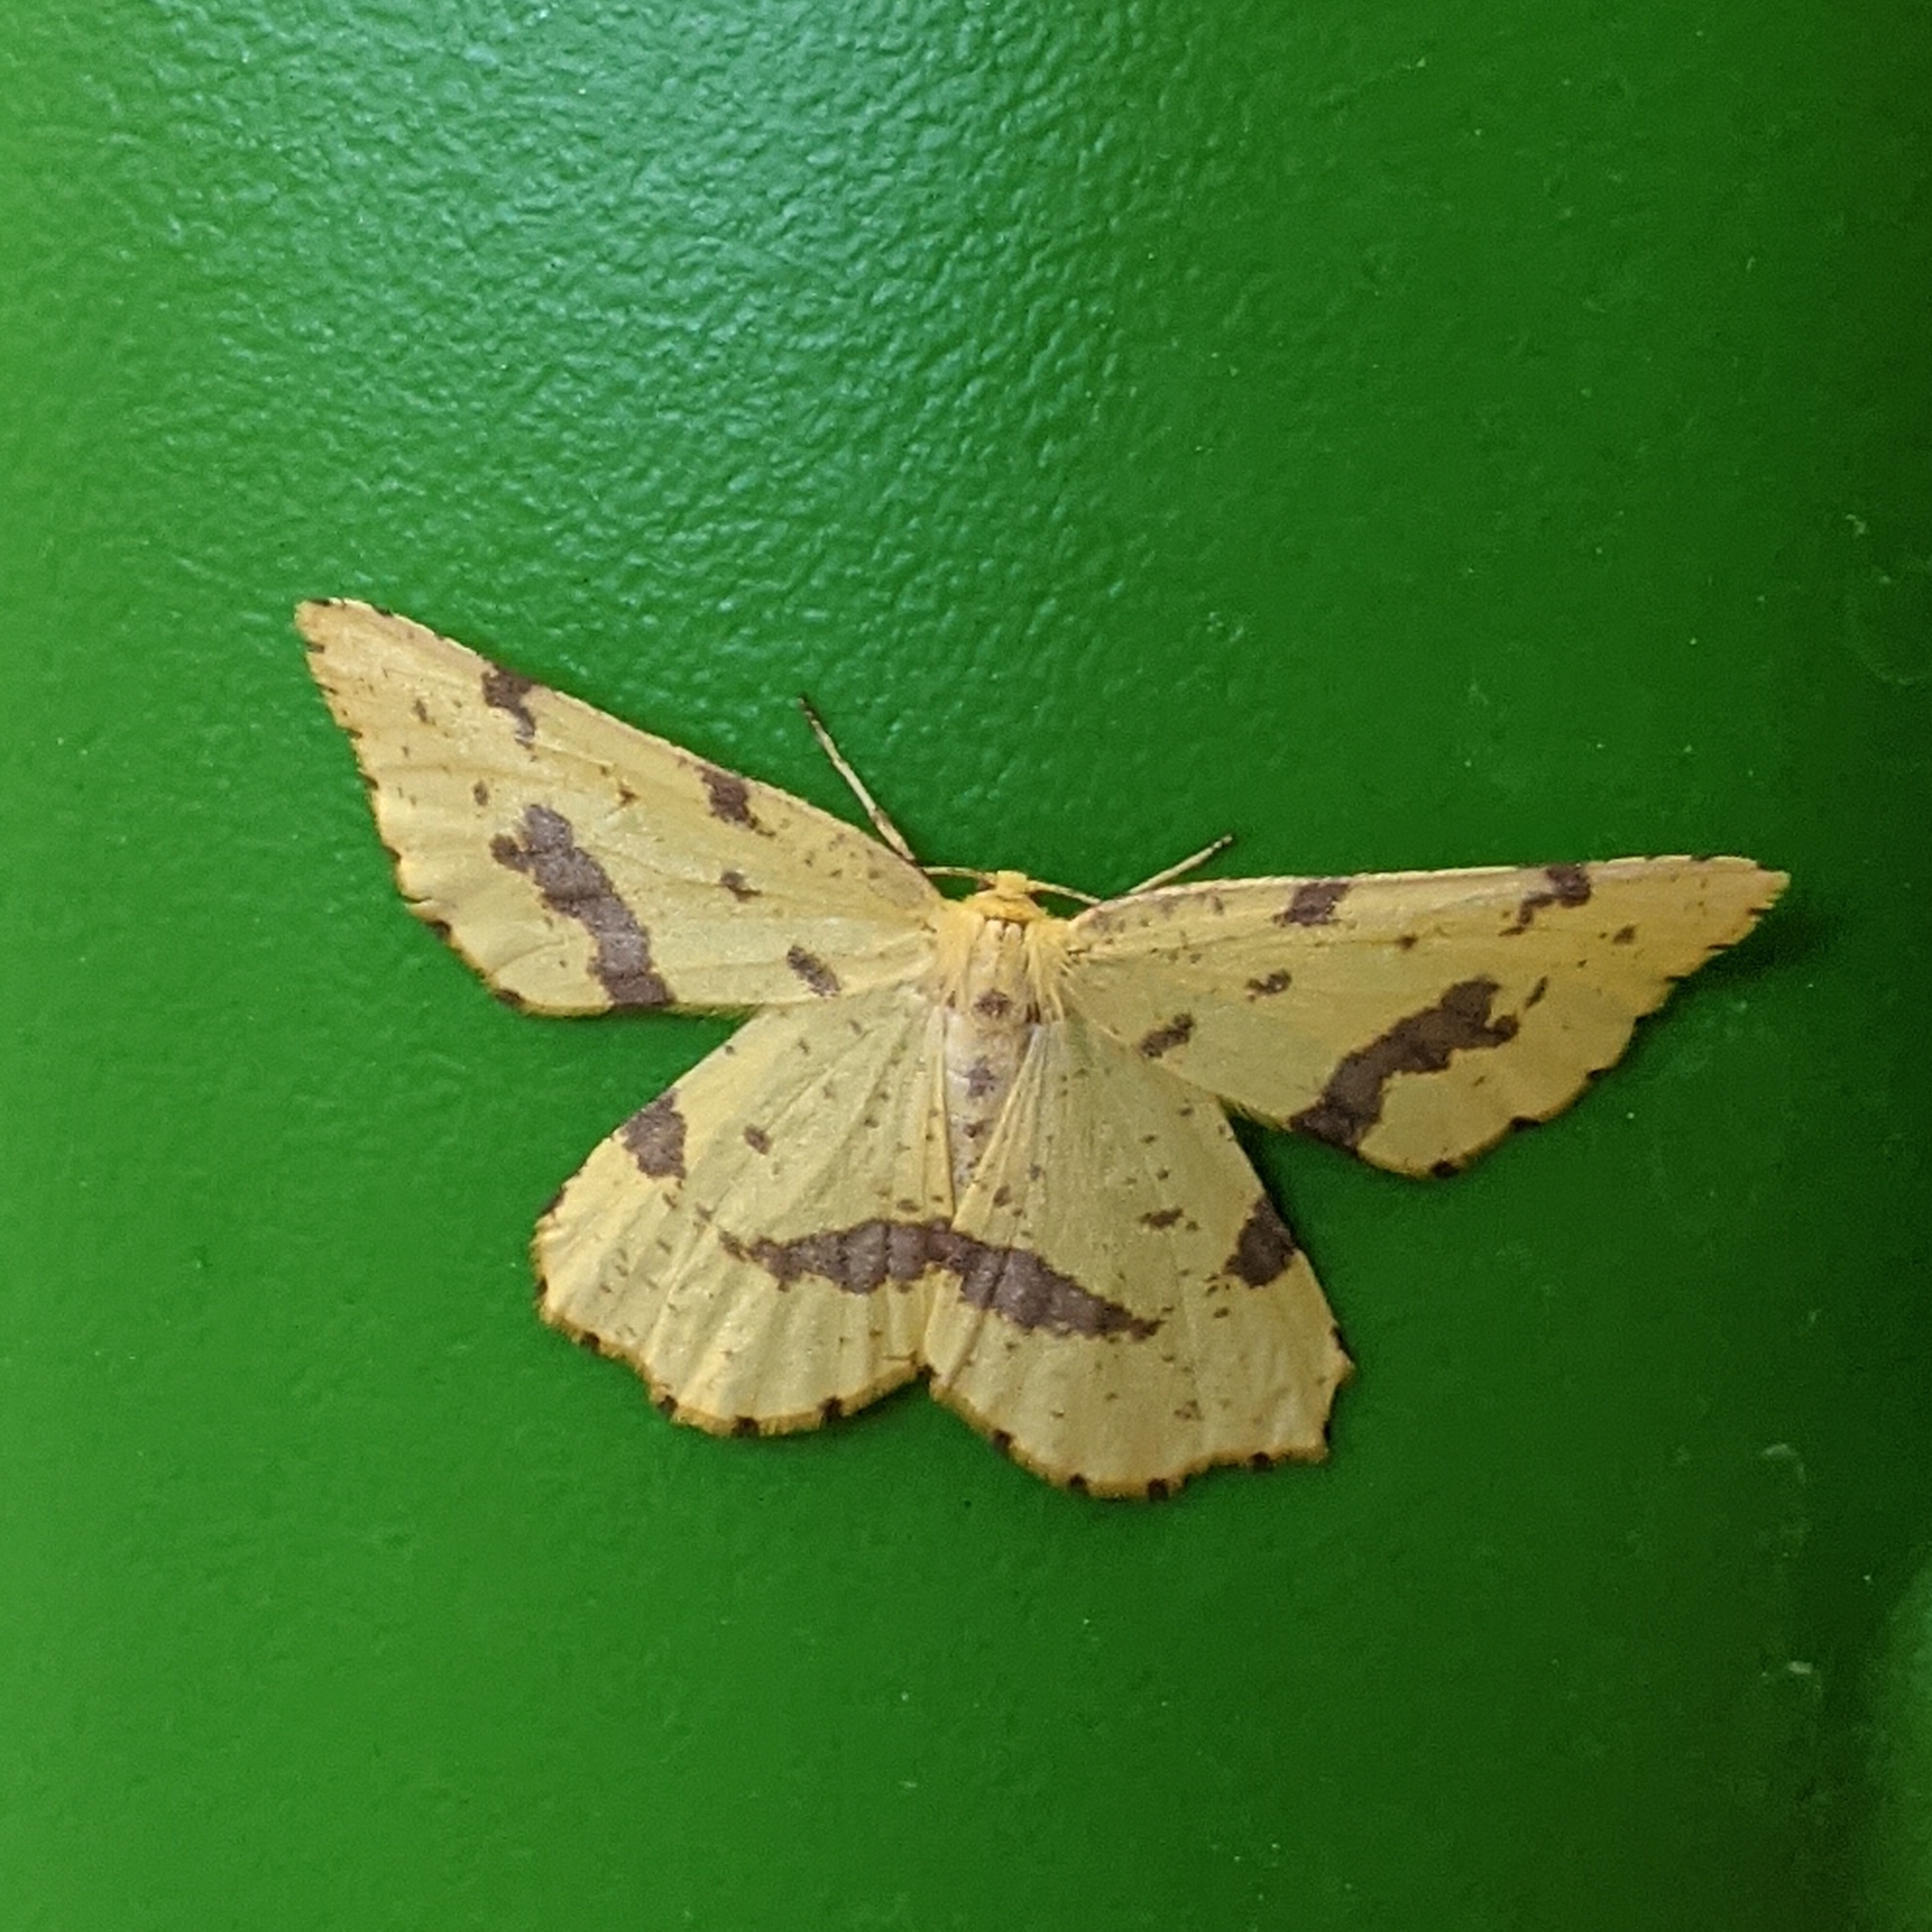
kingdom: Animalia
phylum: Arthropoda
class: Insecta
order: Lepidoptera
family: Geometridae
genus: Xanthotype
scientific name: Xanthotype
